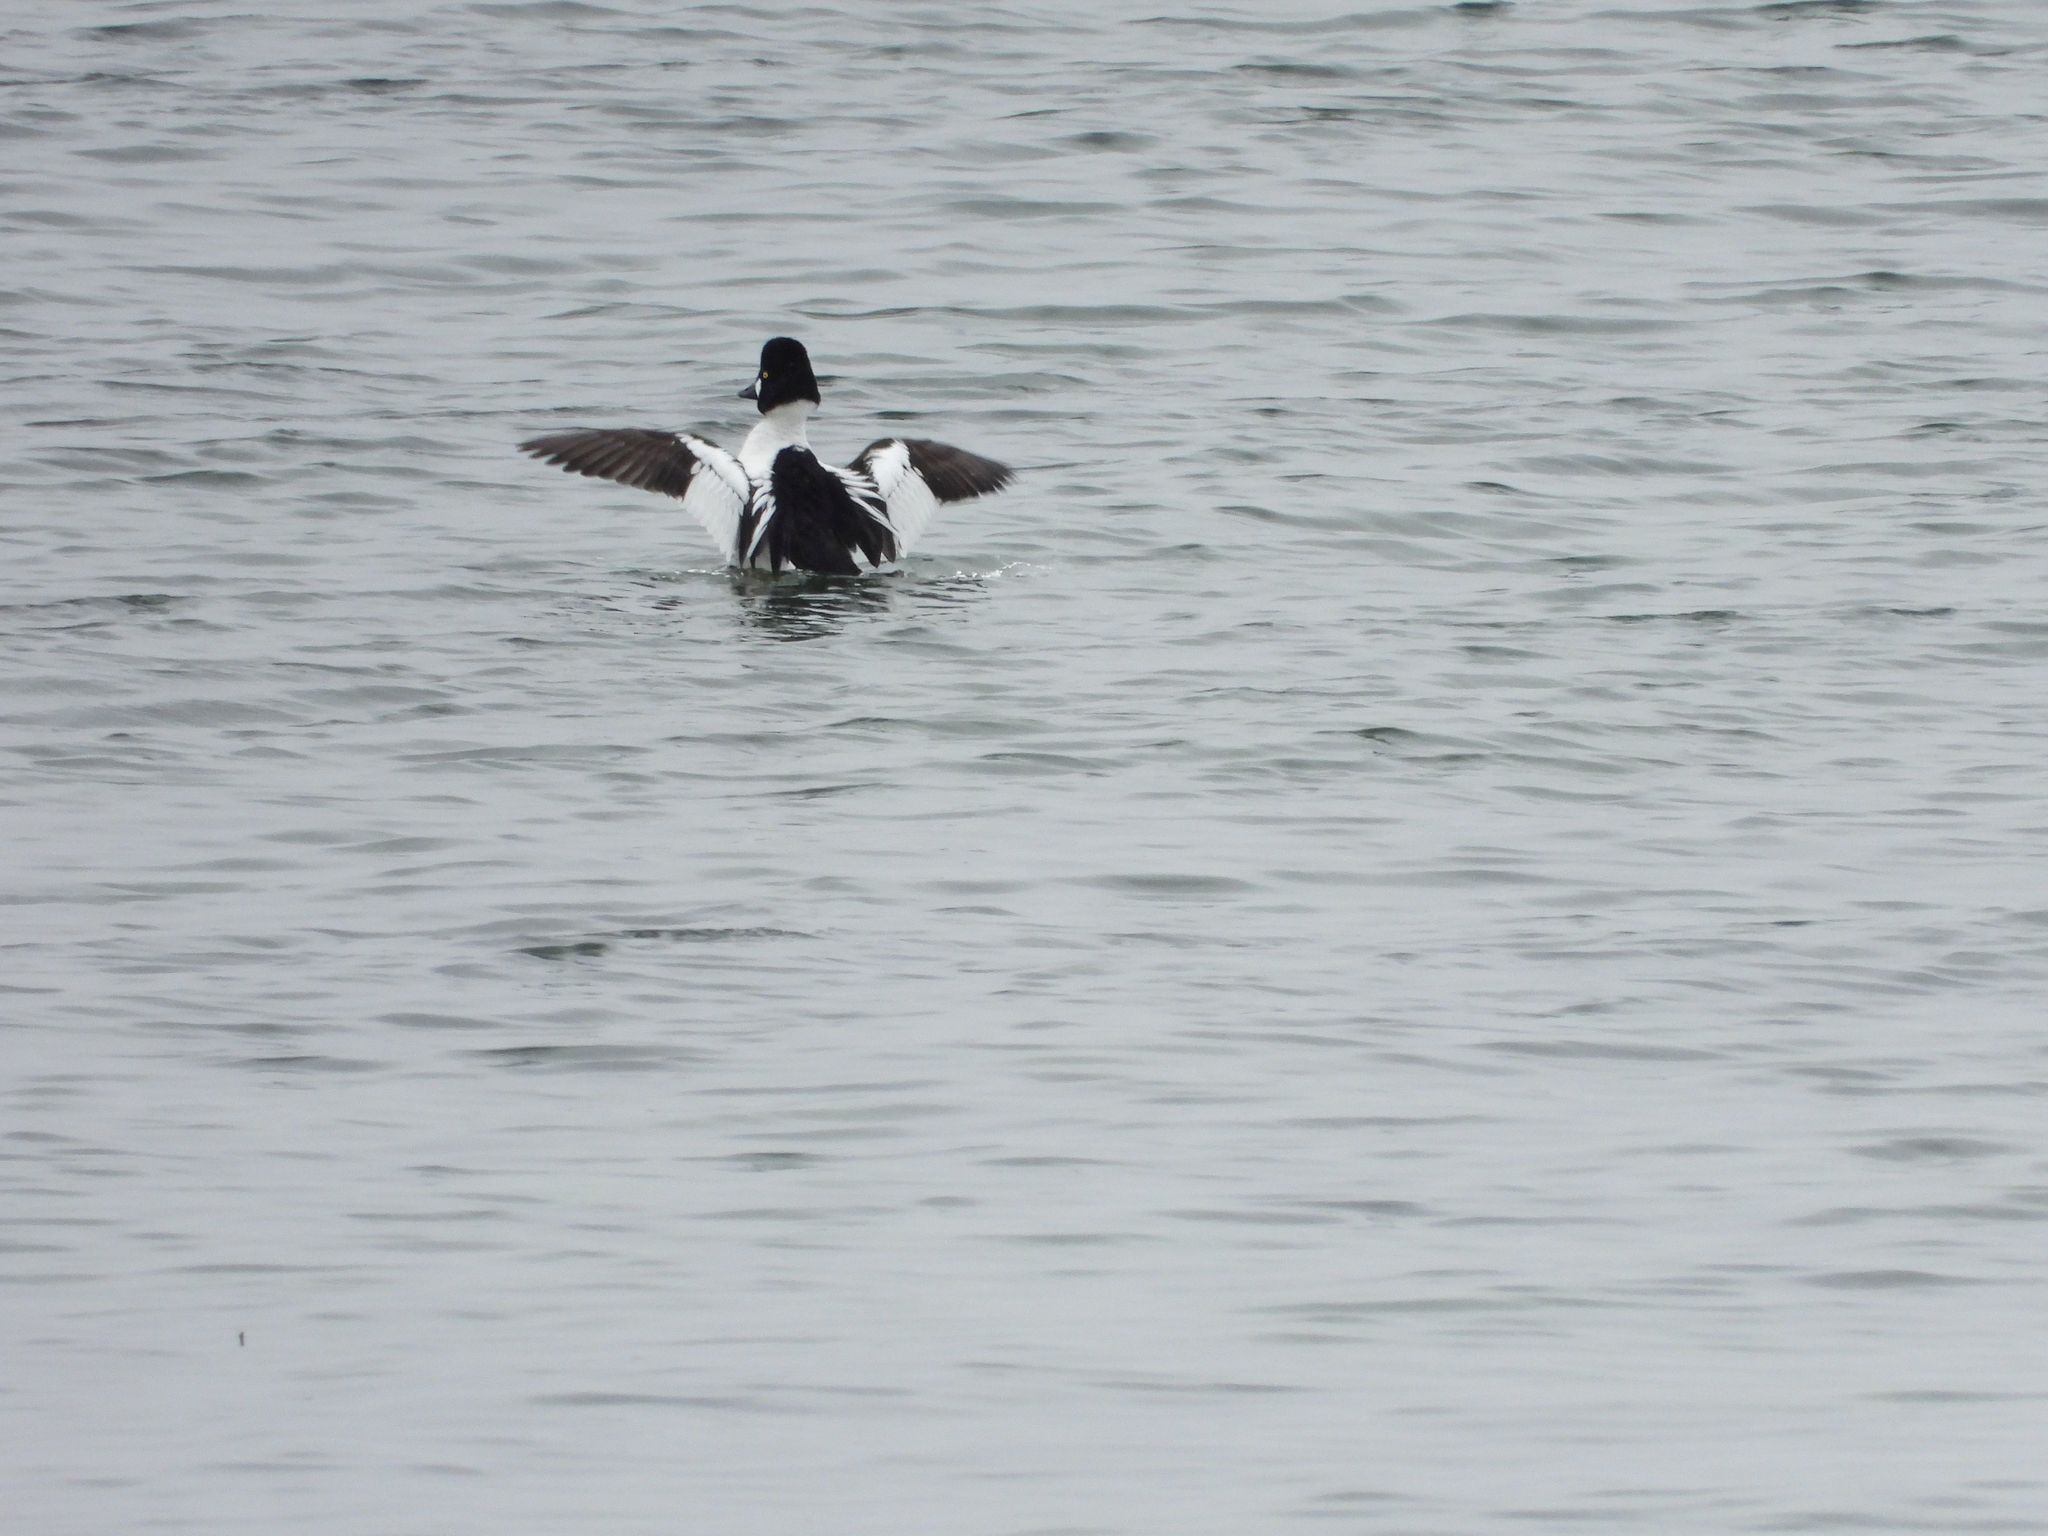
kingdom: Animalia
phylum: Chordata
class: Aves
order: Anseriformes
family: Anatidae
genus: Bucephala
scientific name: Bucephala clangula
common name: Common goldeneye
